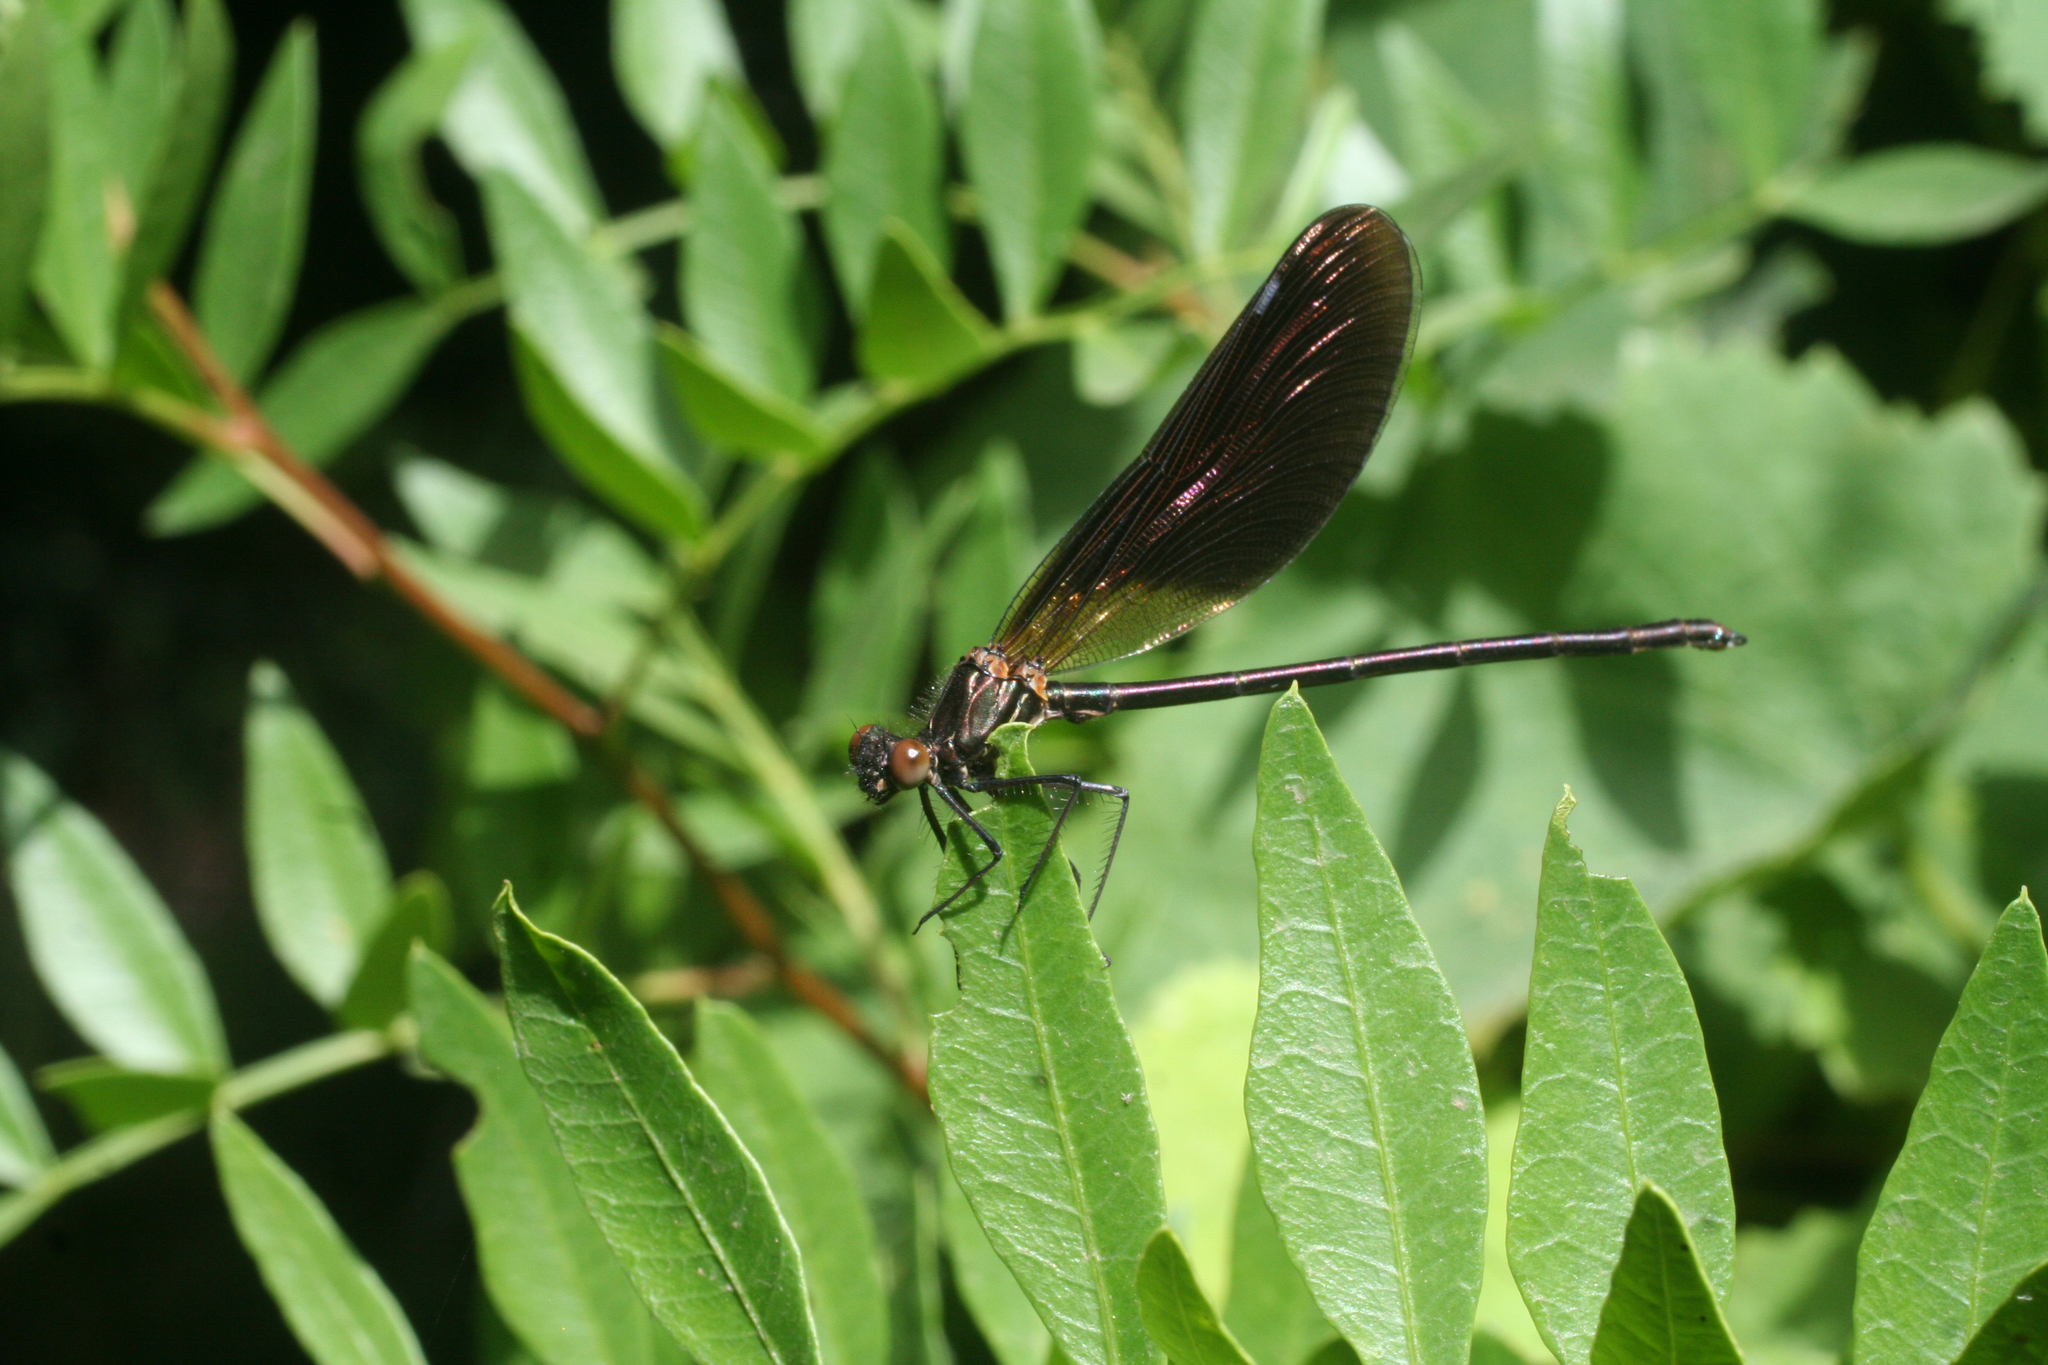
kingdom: Animalia
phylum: Arthropoda
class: Insecta
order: Odonata
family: Calopterygidae
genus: Calopteryx
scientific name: Calopteryx haemorrhoidalis
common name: Copper demoiselle
